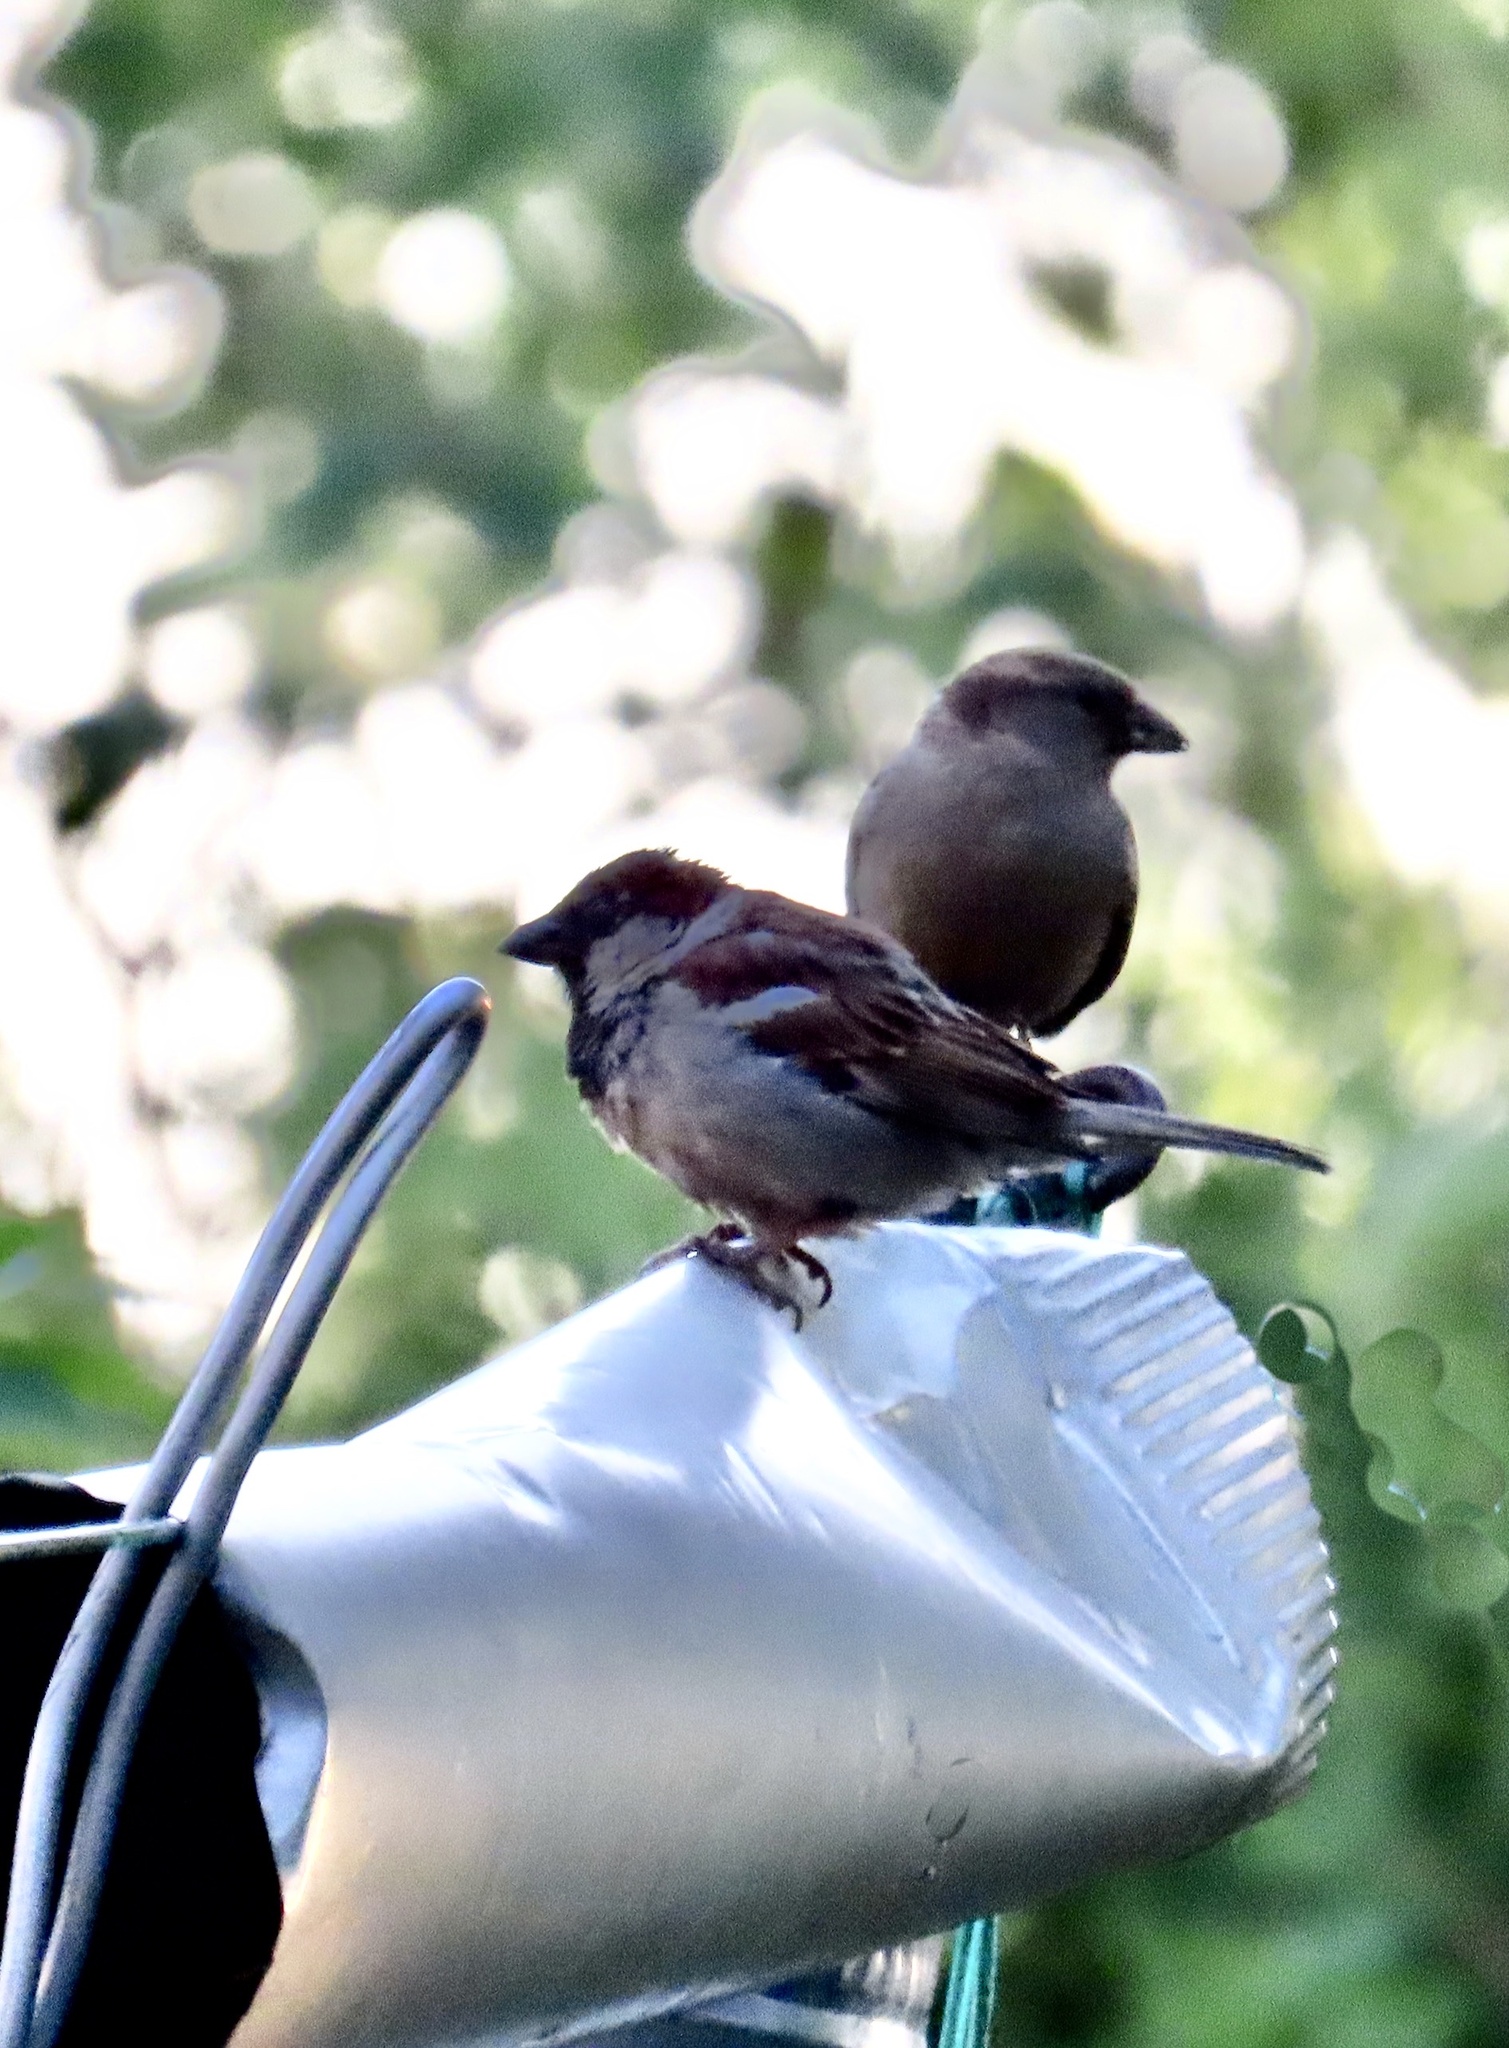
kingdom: Animalia
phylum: Chordata
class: Aves
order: Passeriformes
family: Passeridae
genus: Passer
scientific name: Passer domesticus
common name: House sparrow
